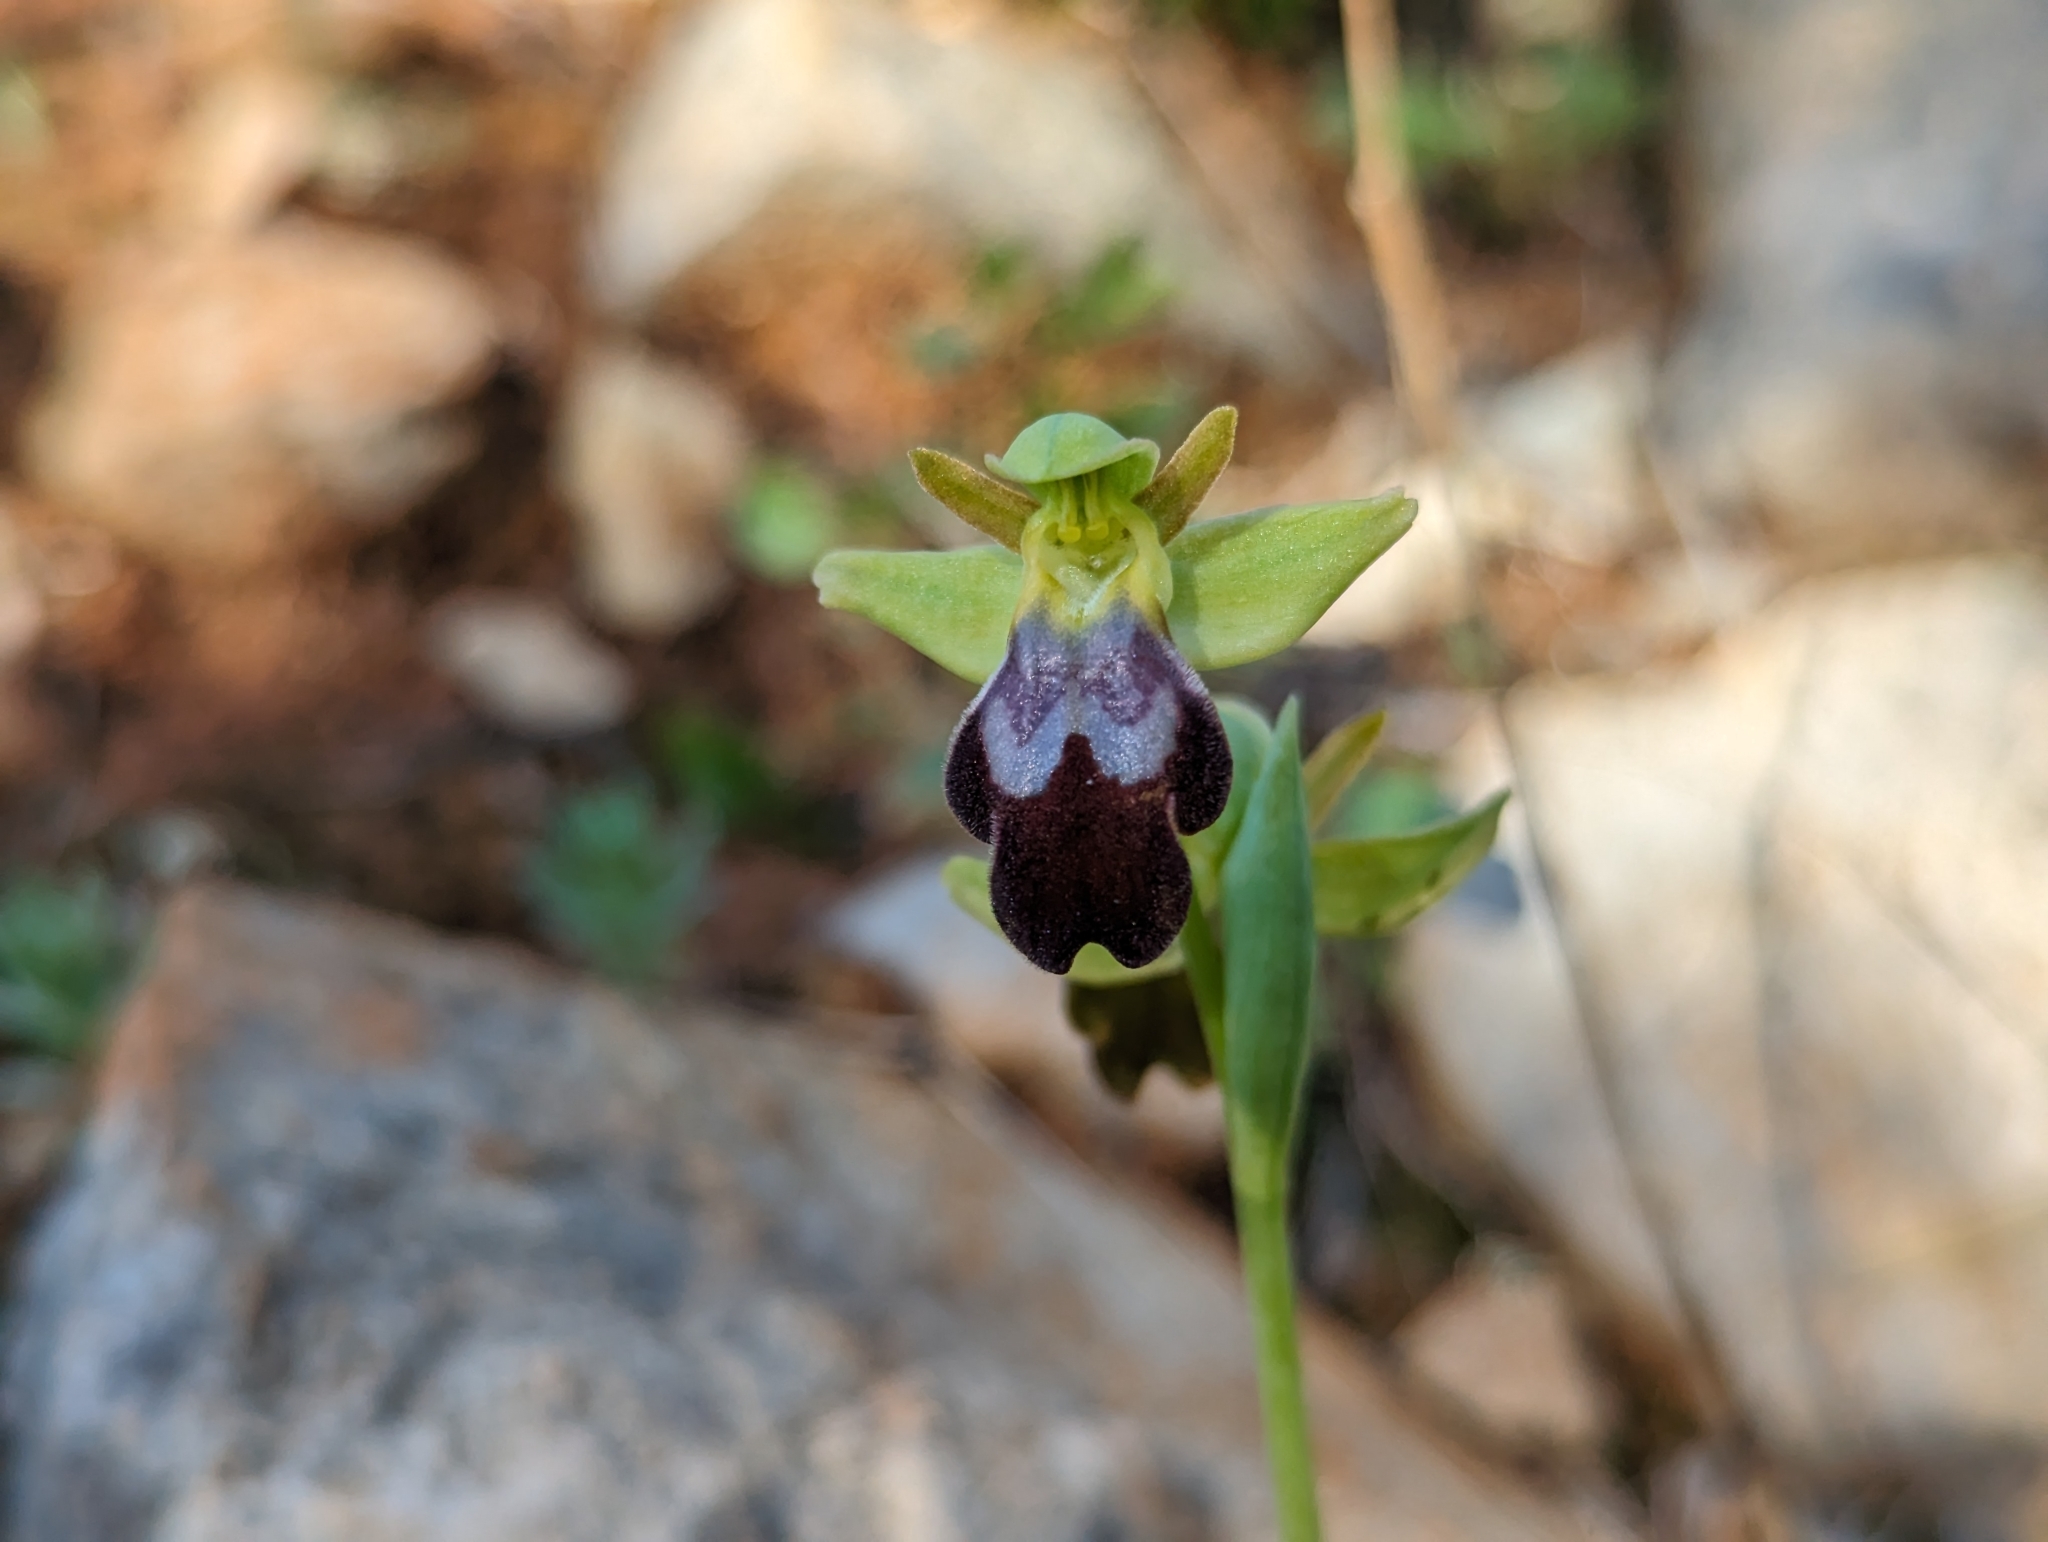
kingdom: Plantae
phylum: Tracheophyta
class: Liliopsida
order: Asparagales
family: Orchidaceae
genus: Ophrys
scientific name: Ophrys fusca
